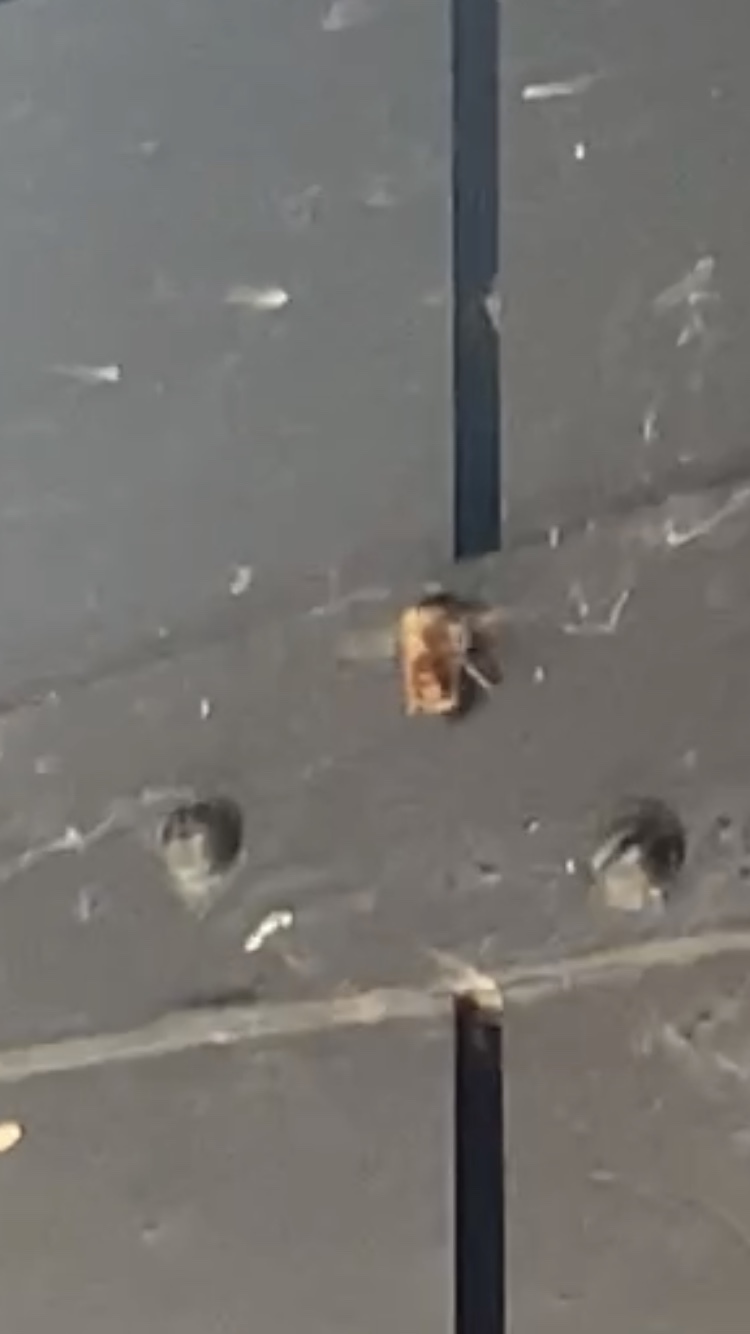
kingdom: Animalia
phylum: Arthropoda
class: Insecta
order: Hymenoptera
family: Megachilidae
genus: Osmia
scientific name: Osmia bicornis
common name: Red mason bee
